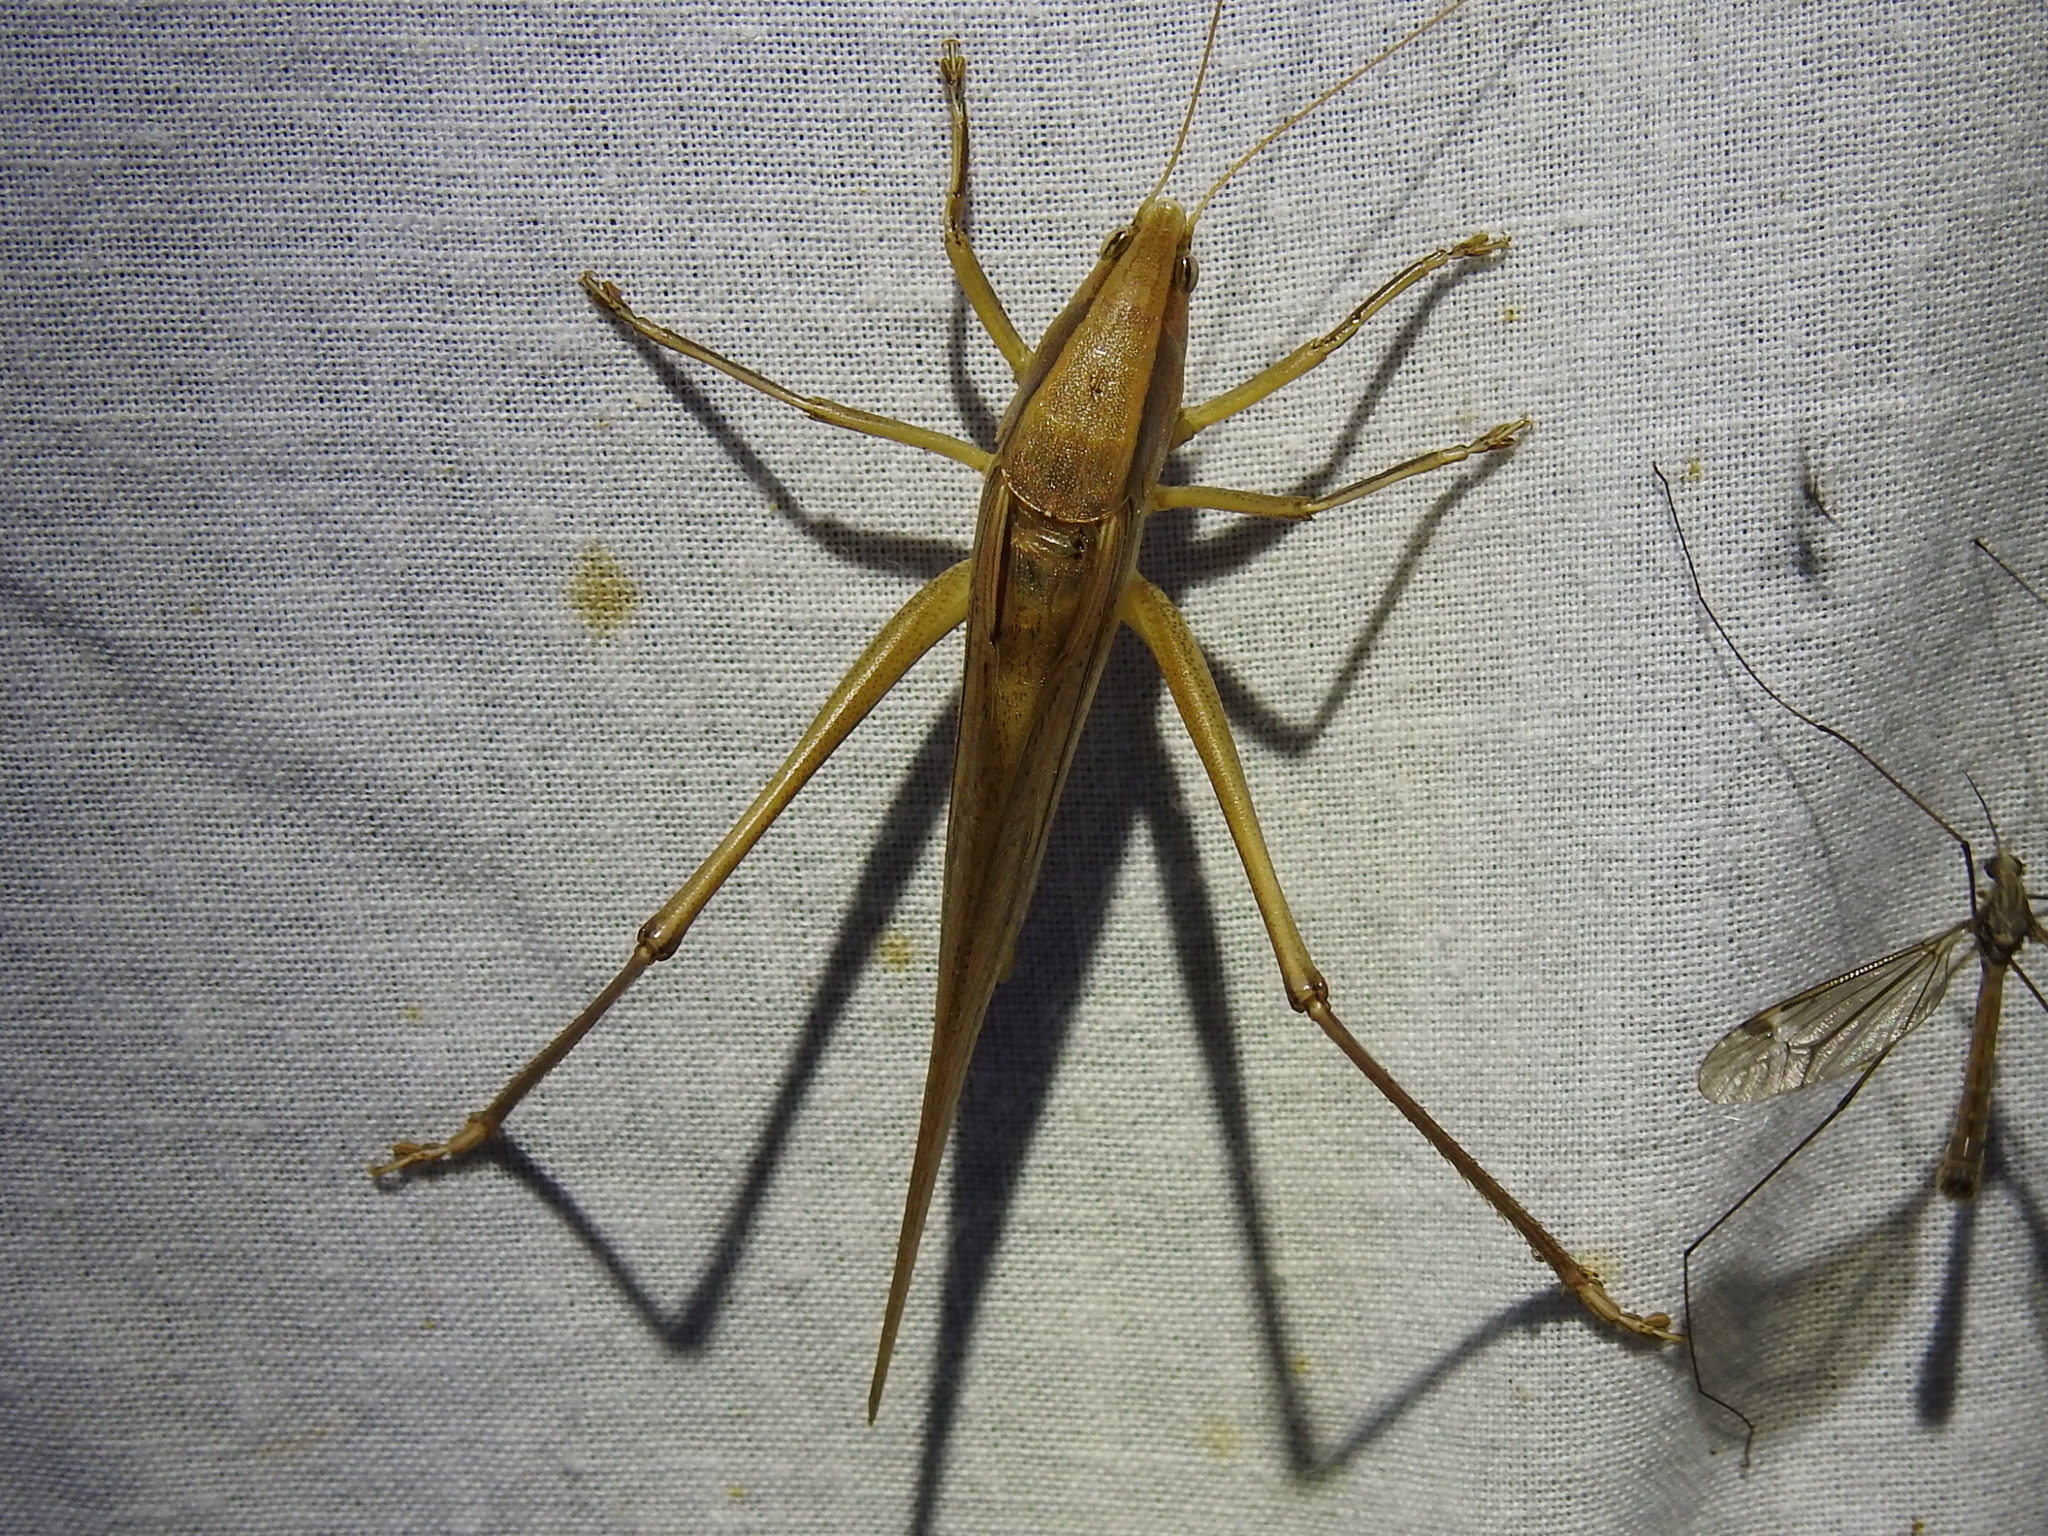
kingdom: Animalia
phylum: Arthropoda
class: Insecta
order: Orthoptera
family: Tettigoniidae
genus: Neoconocephalus
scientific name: Neoconocephalus triops
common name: Broad-tipped conehead
